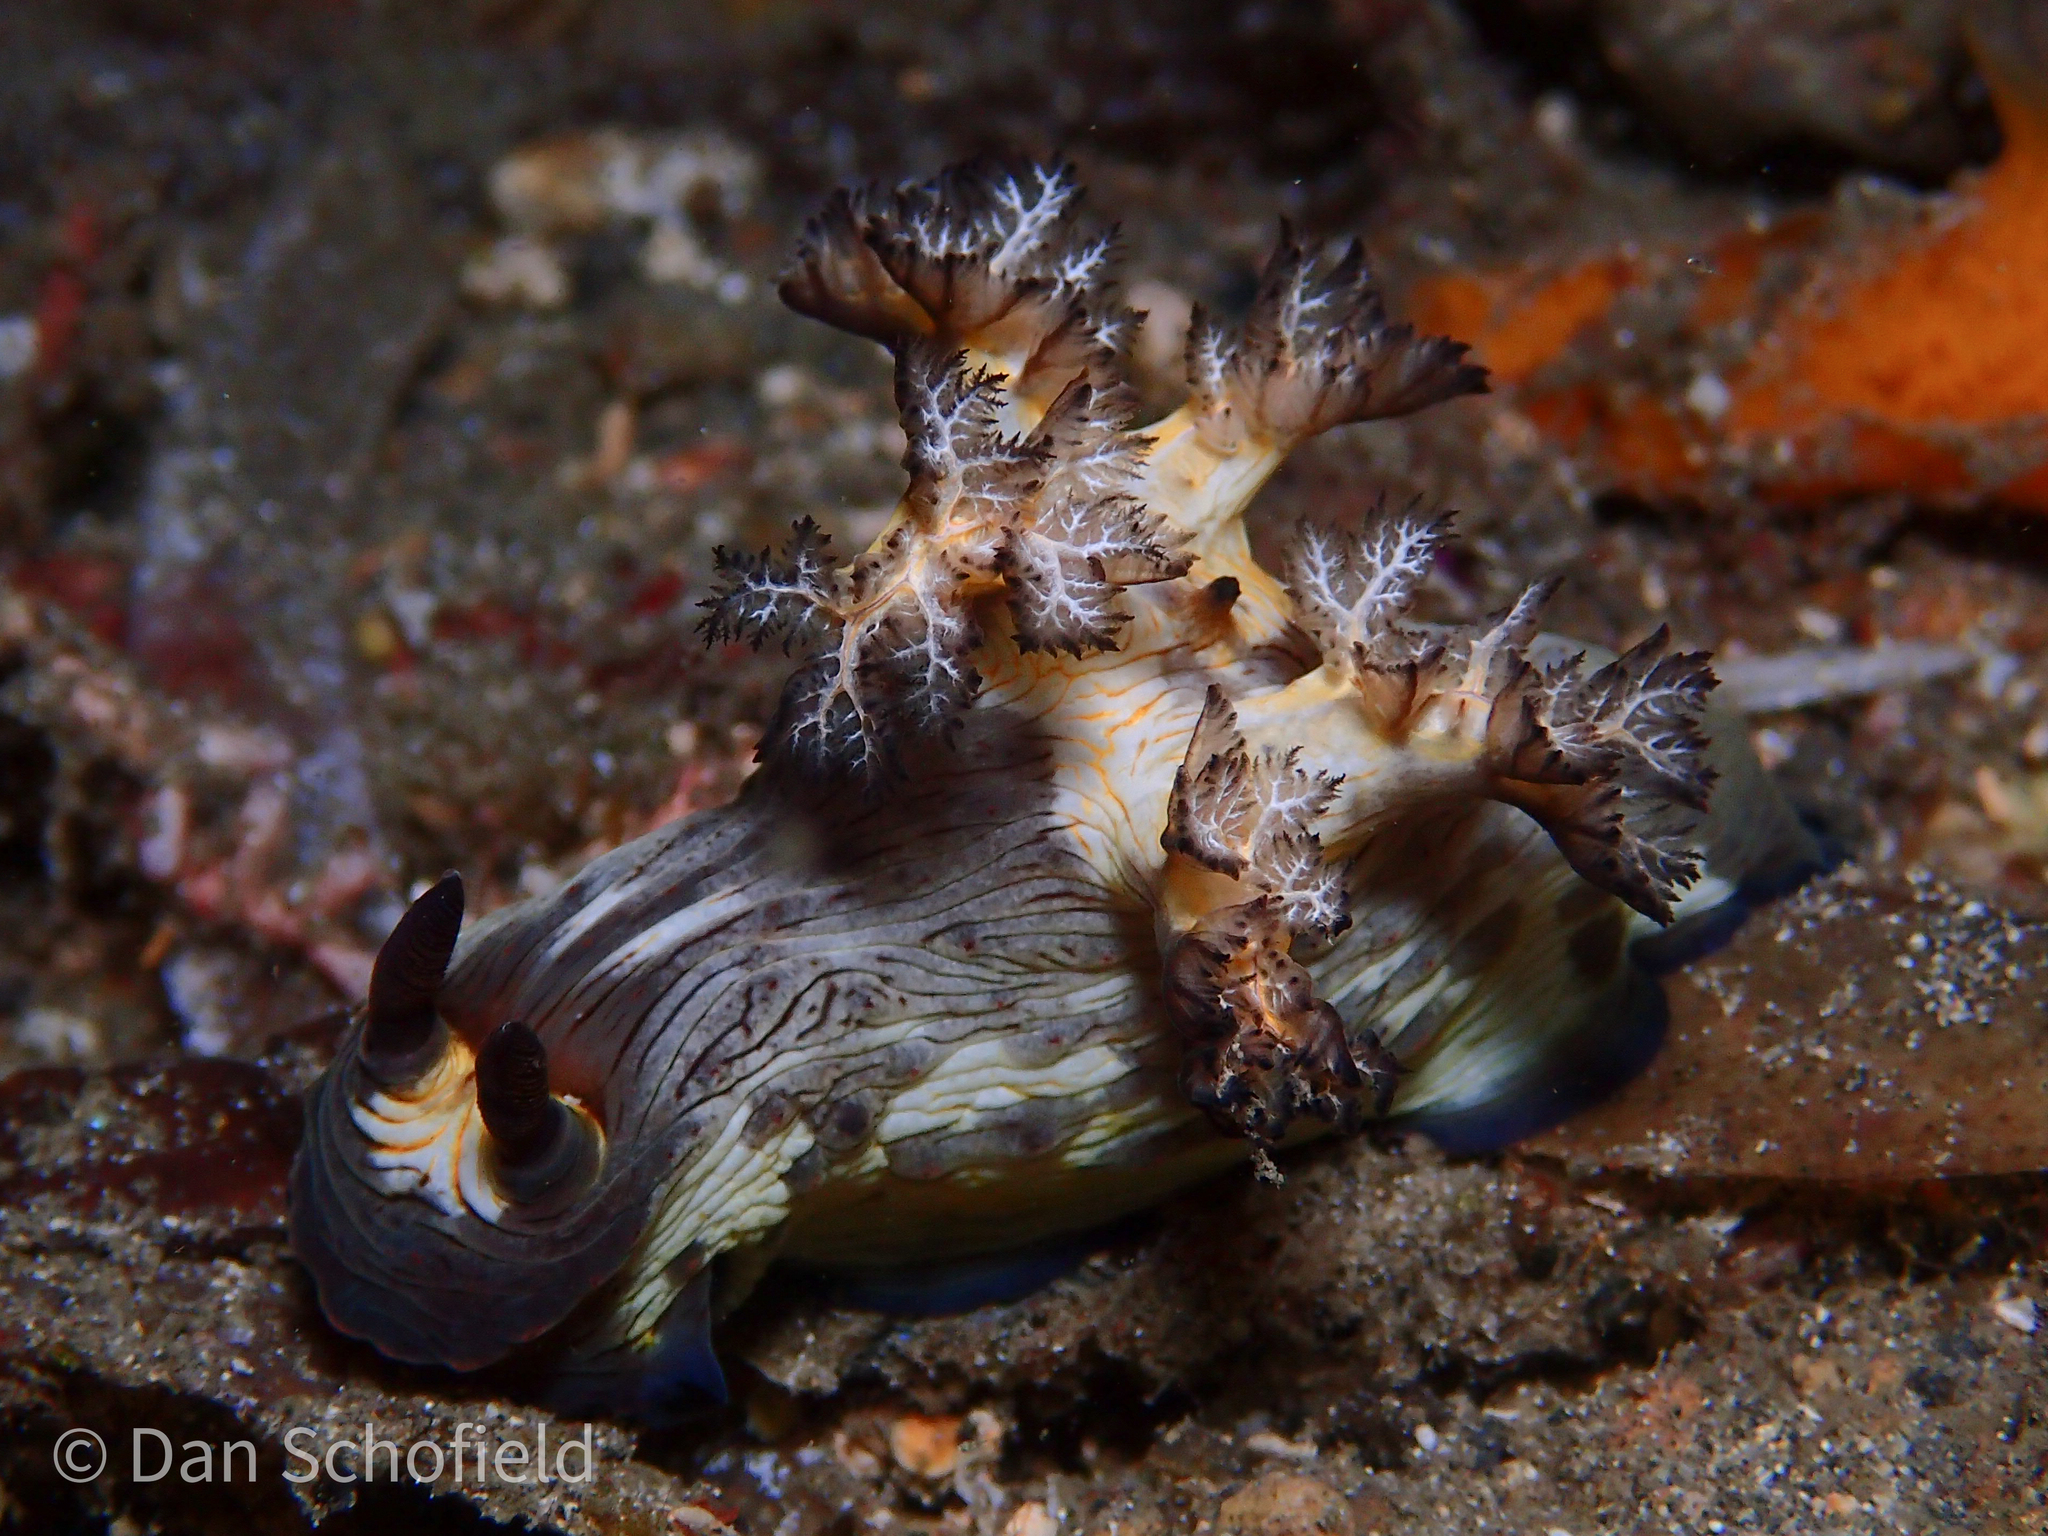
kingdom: Animalia
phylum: Mollusca
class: Gastropoda
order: Nudibranchia
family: Polyceridae
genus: Nembrotha
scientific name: Nembrotha mullineri
